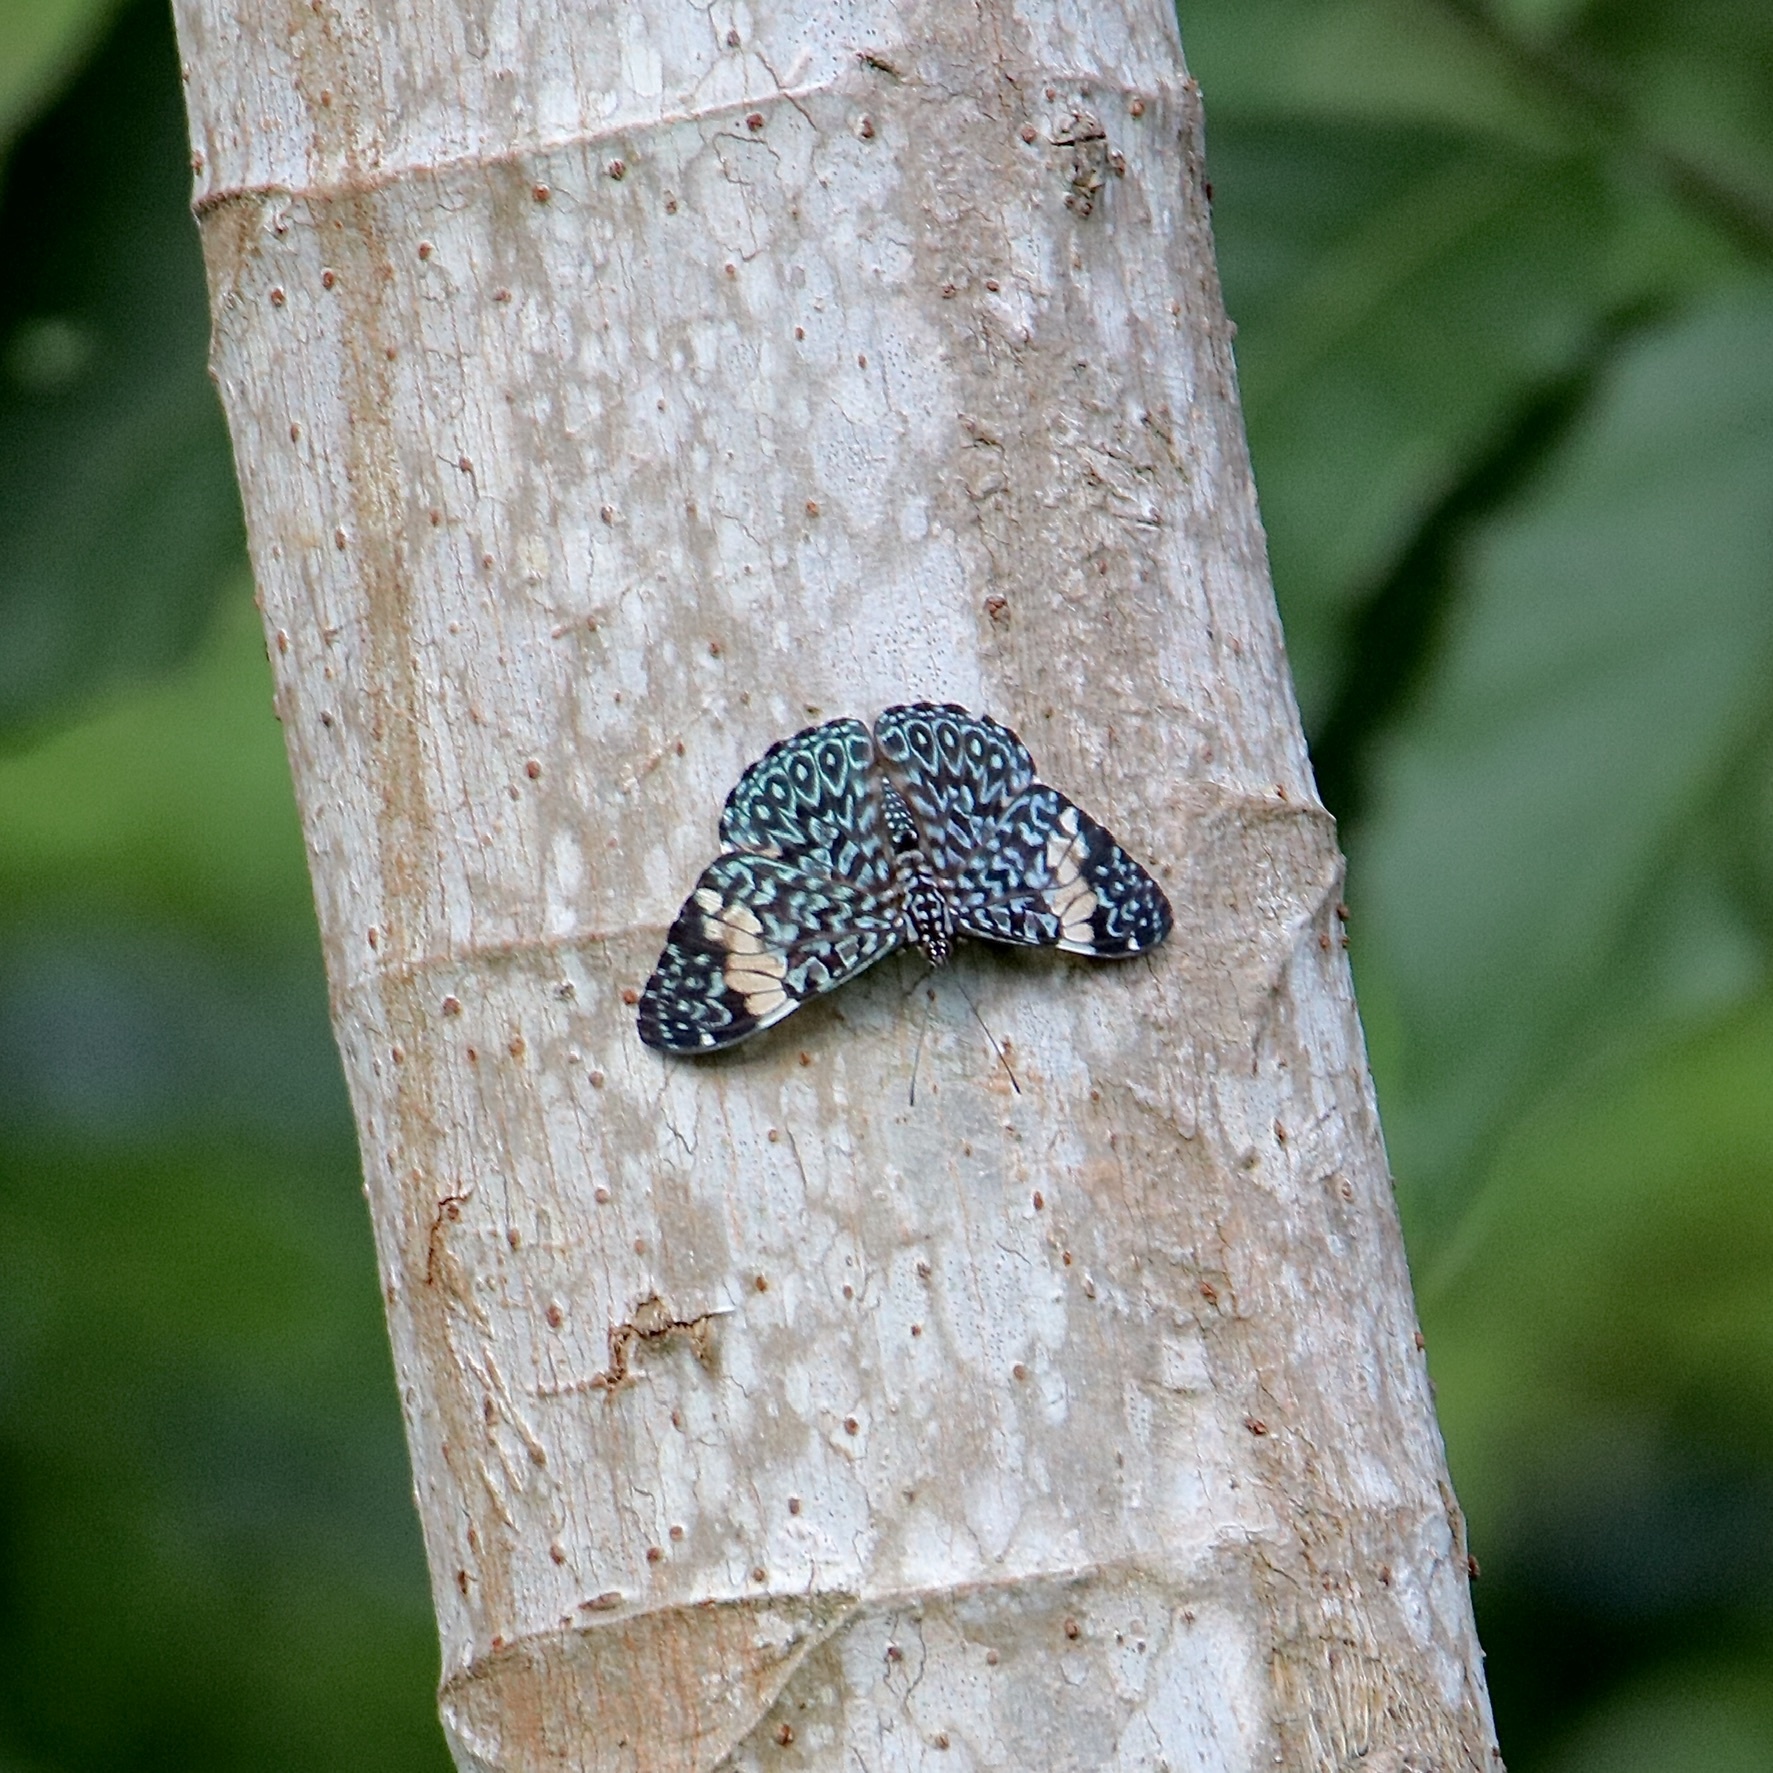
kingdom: Animalia
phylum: Arthropoda
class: Insecta
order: Lepidoptera
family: Nymphalidae
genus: Hamadryas
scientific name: Hamadryas amphinome
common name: Red cracker
